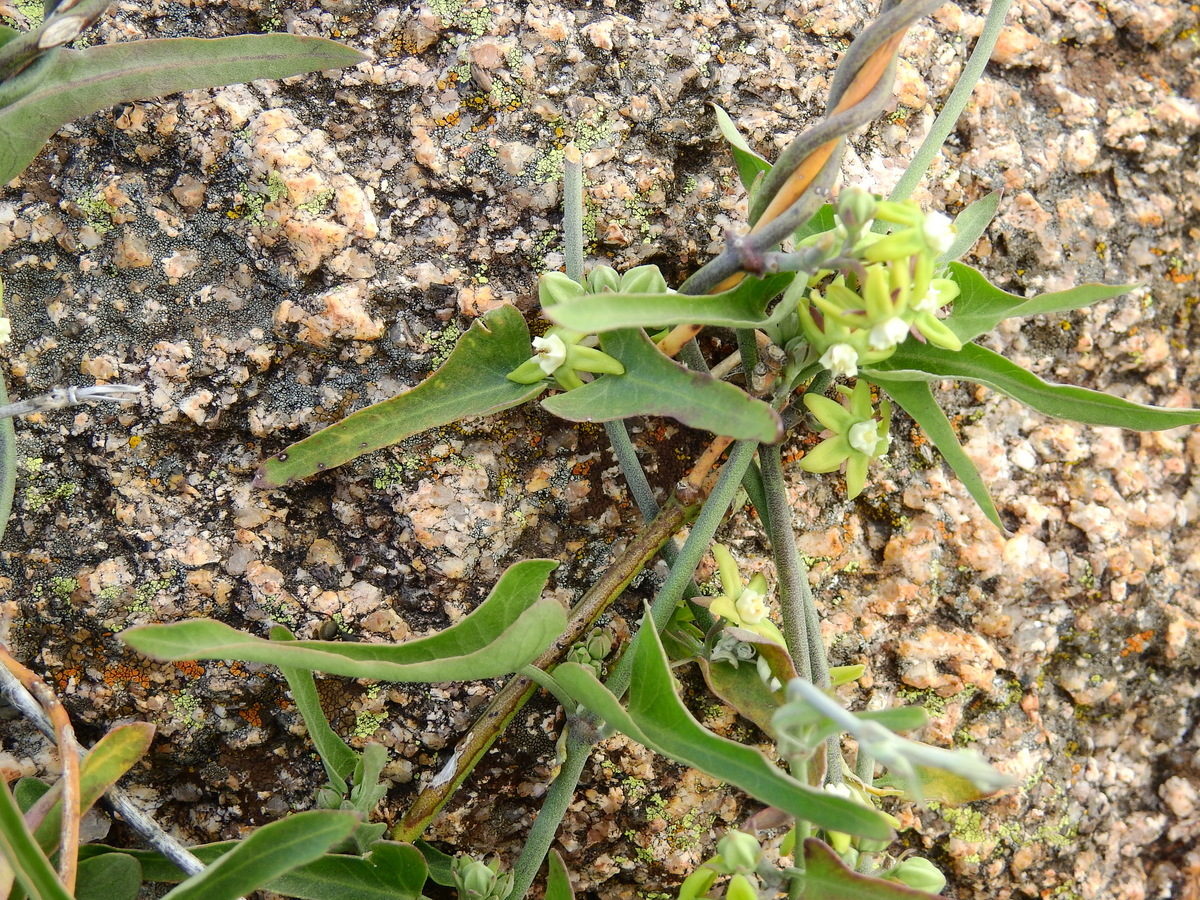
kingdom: Plantae
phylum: Tracheophyta
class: Magnoliopsida
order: Gentianales
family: Apocynaceae
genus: Araujia
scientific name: Araujia brachystephana
